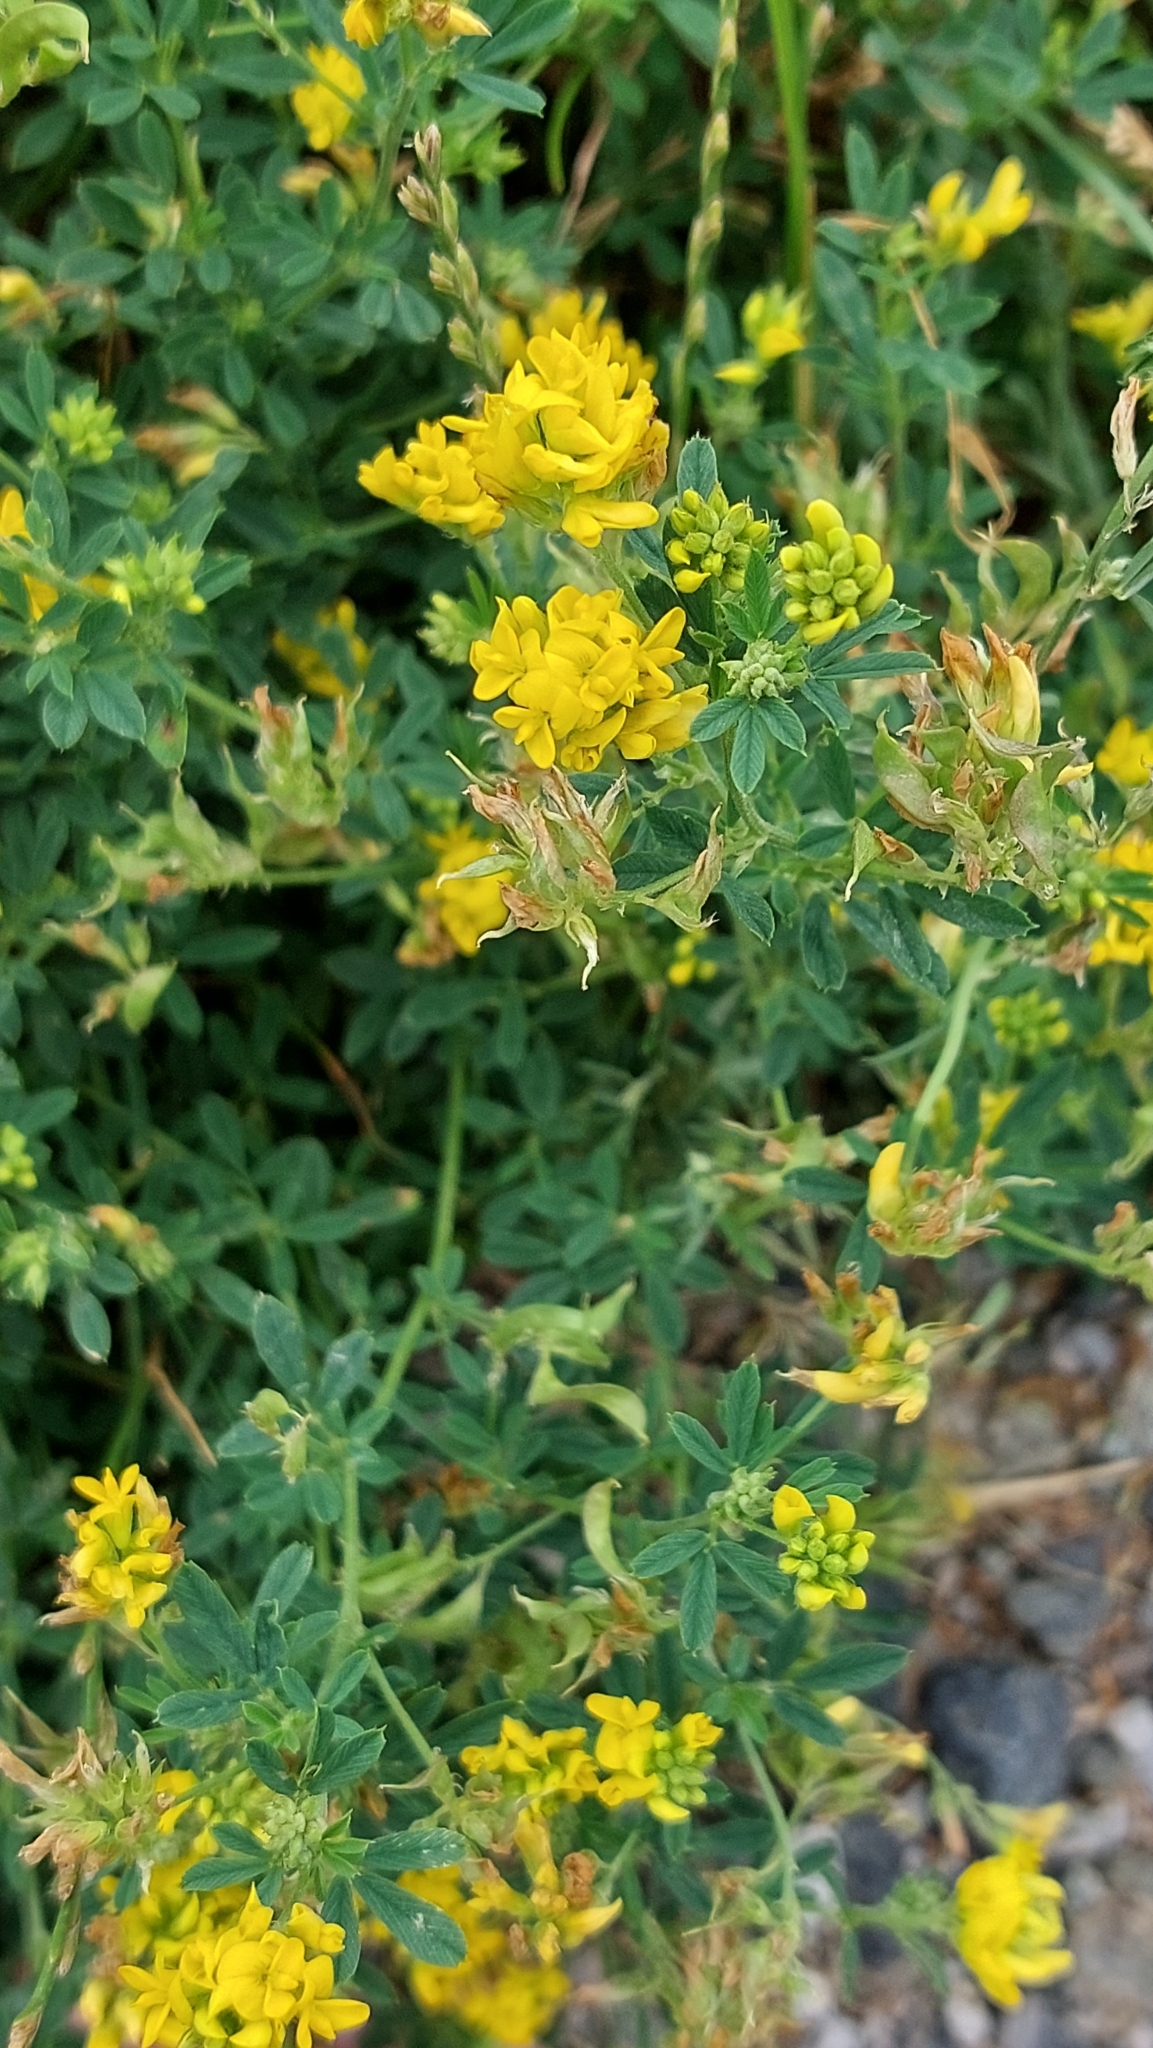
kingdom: Plantae
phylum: Tracheophyta
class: Magnoliopsida
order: Fabales
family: Fabaceae
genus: Medicago
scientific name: Medicago falcata
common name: Sickle medick
